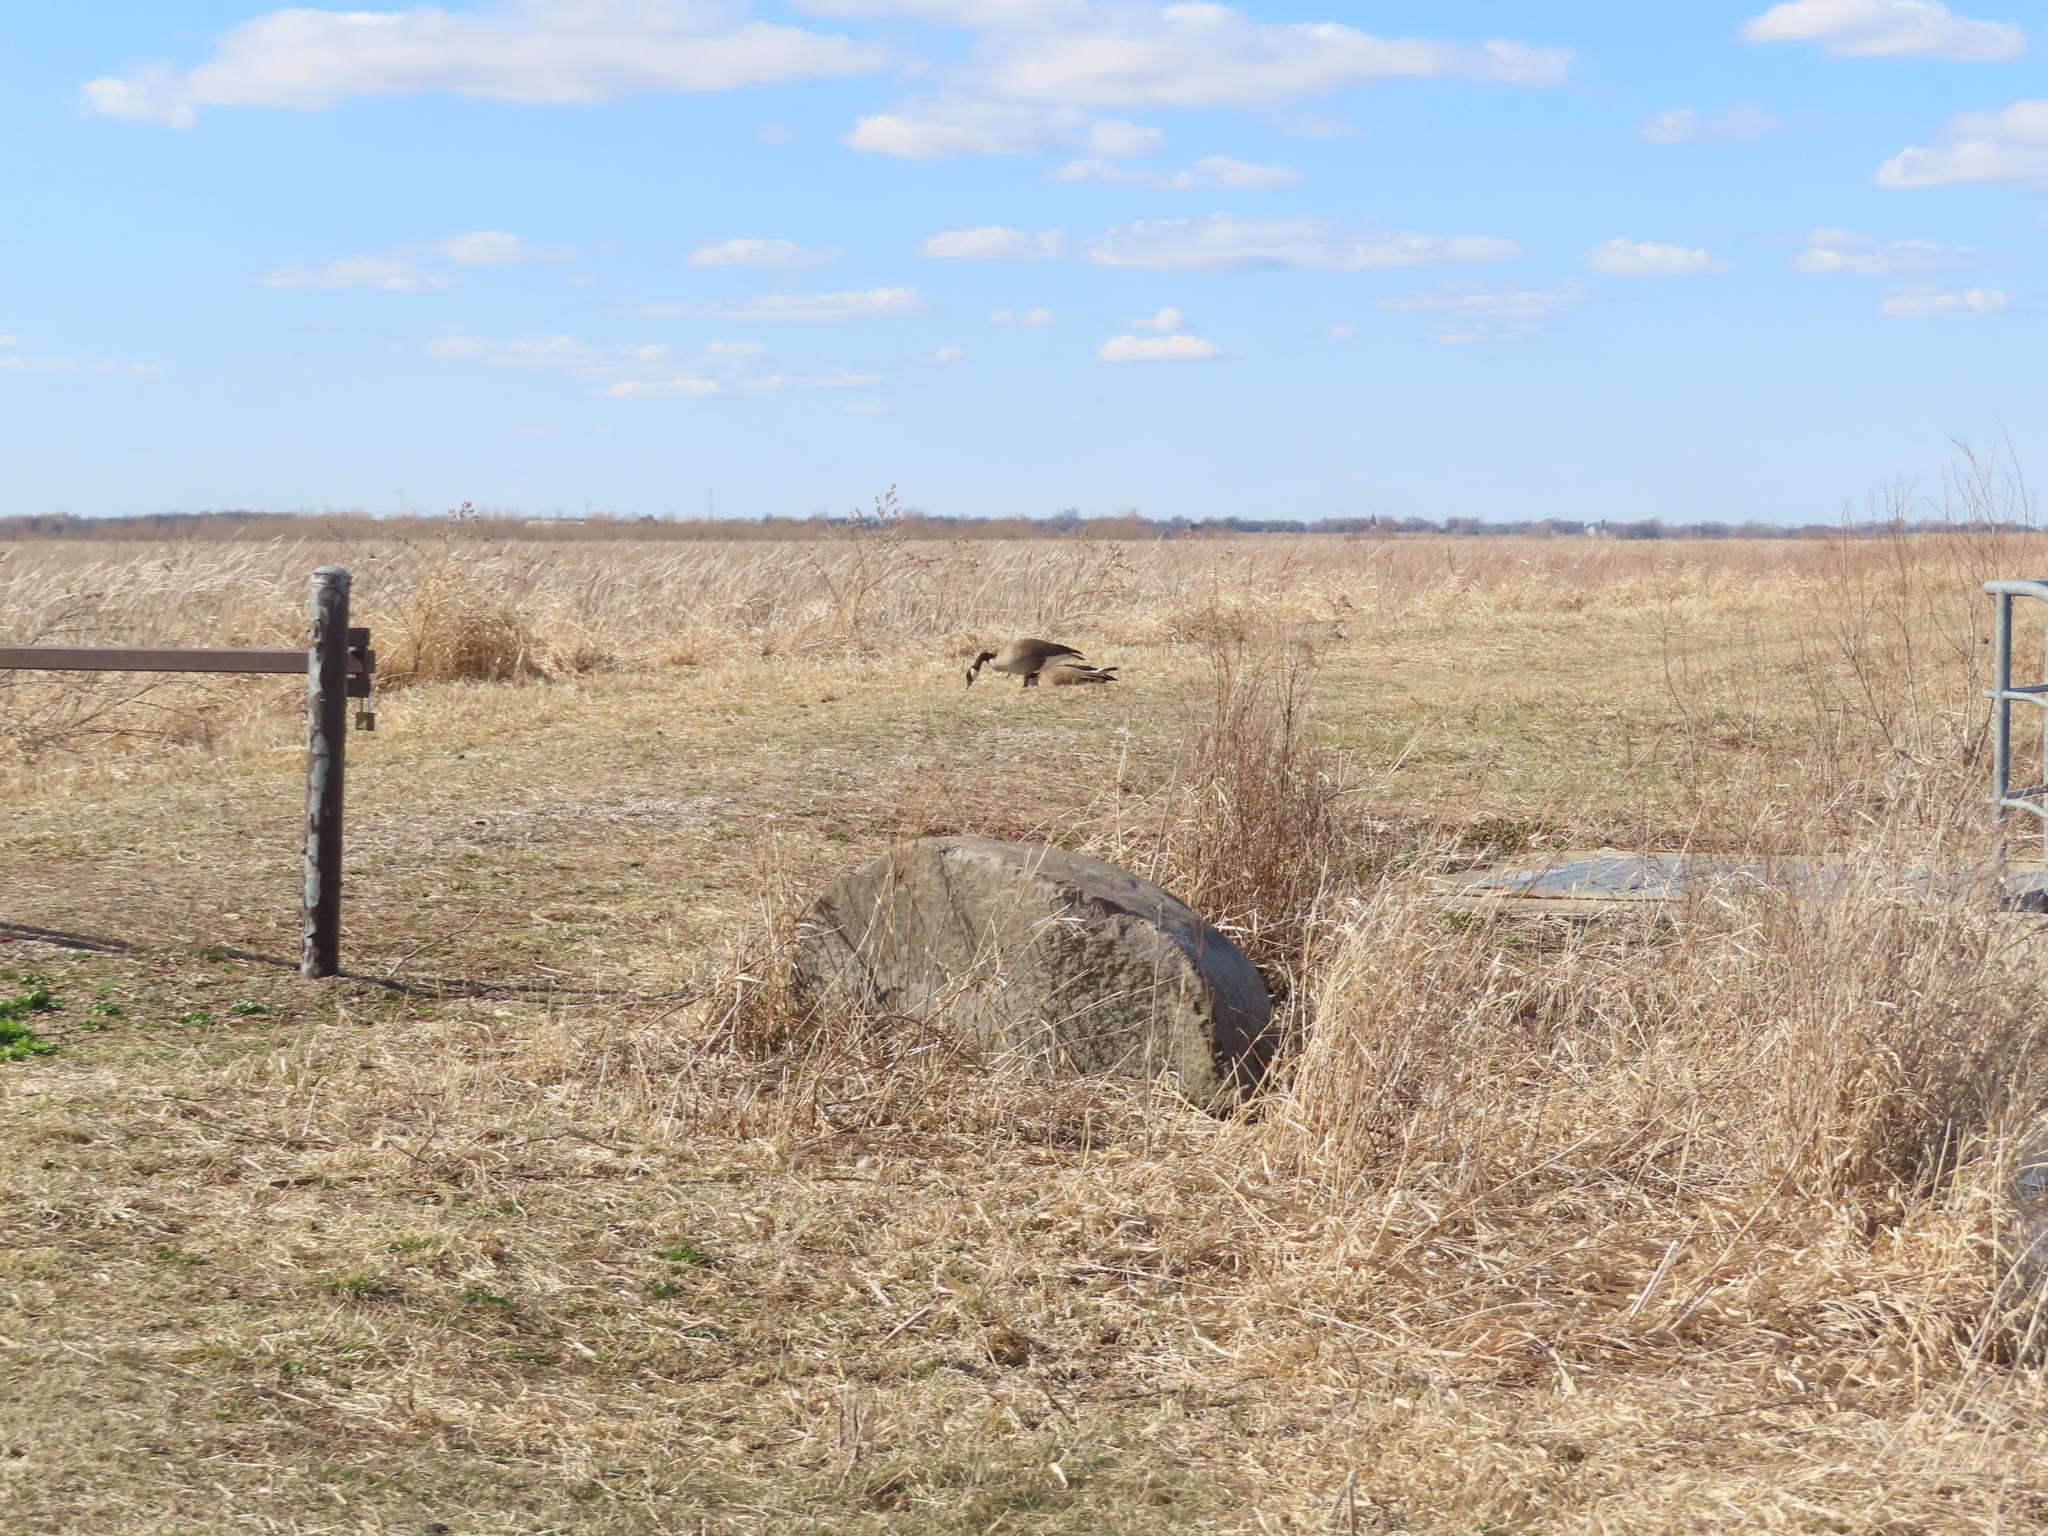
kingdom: Animalia
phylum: Chordata
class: Aves
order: Anseriformes
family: Anatidae
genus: Branta
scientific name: Branta canadensis
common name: Canada goose
